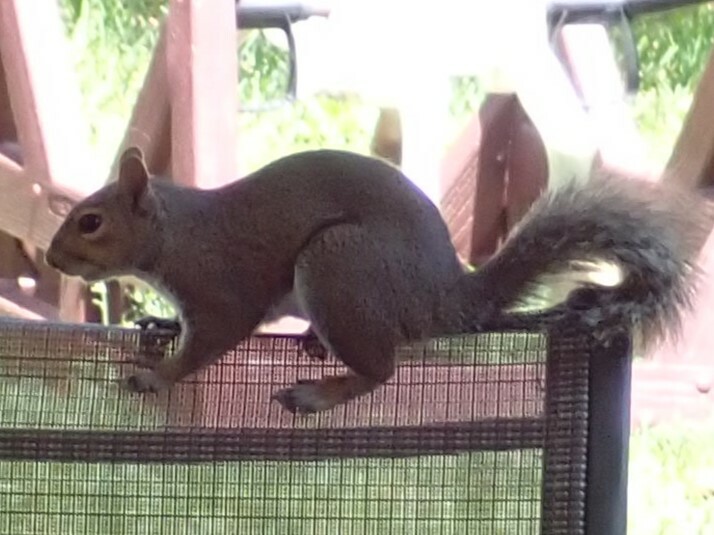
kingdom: Animalia
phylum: Chordata
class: Mammalia
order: Rodentia
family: Sciuridae
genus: Sciurus
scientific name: Sciurus carolinensis
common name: Eastern gray squirrel
